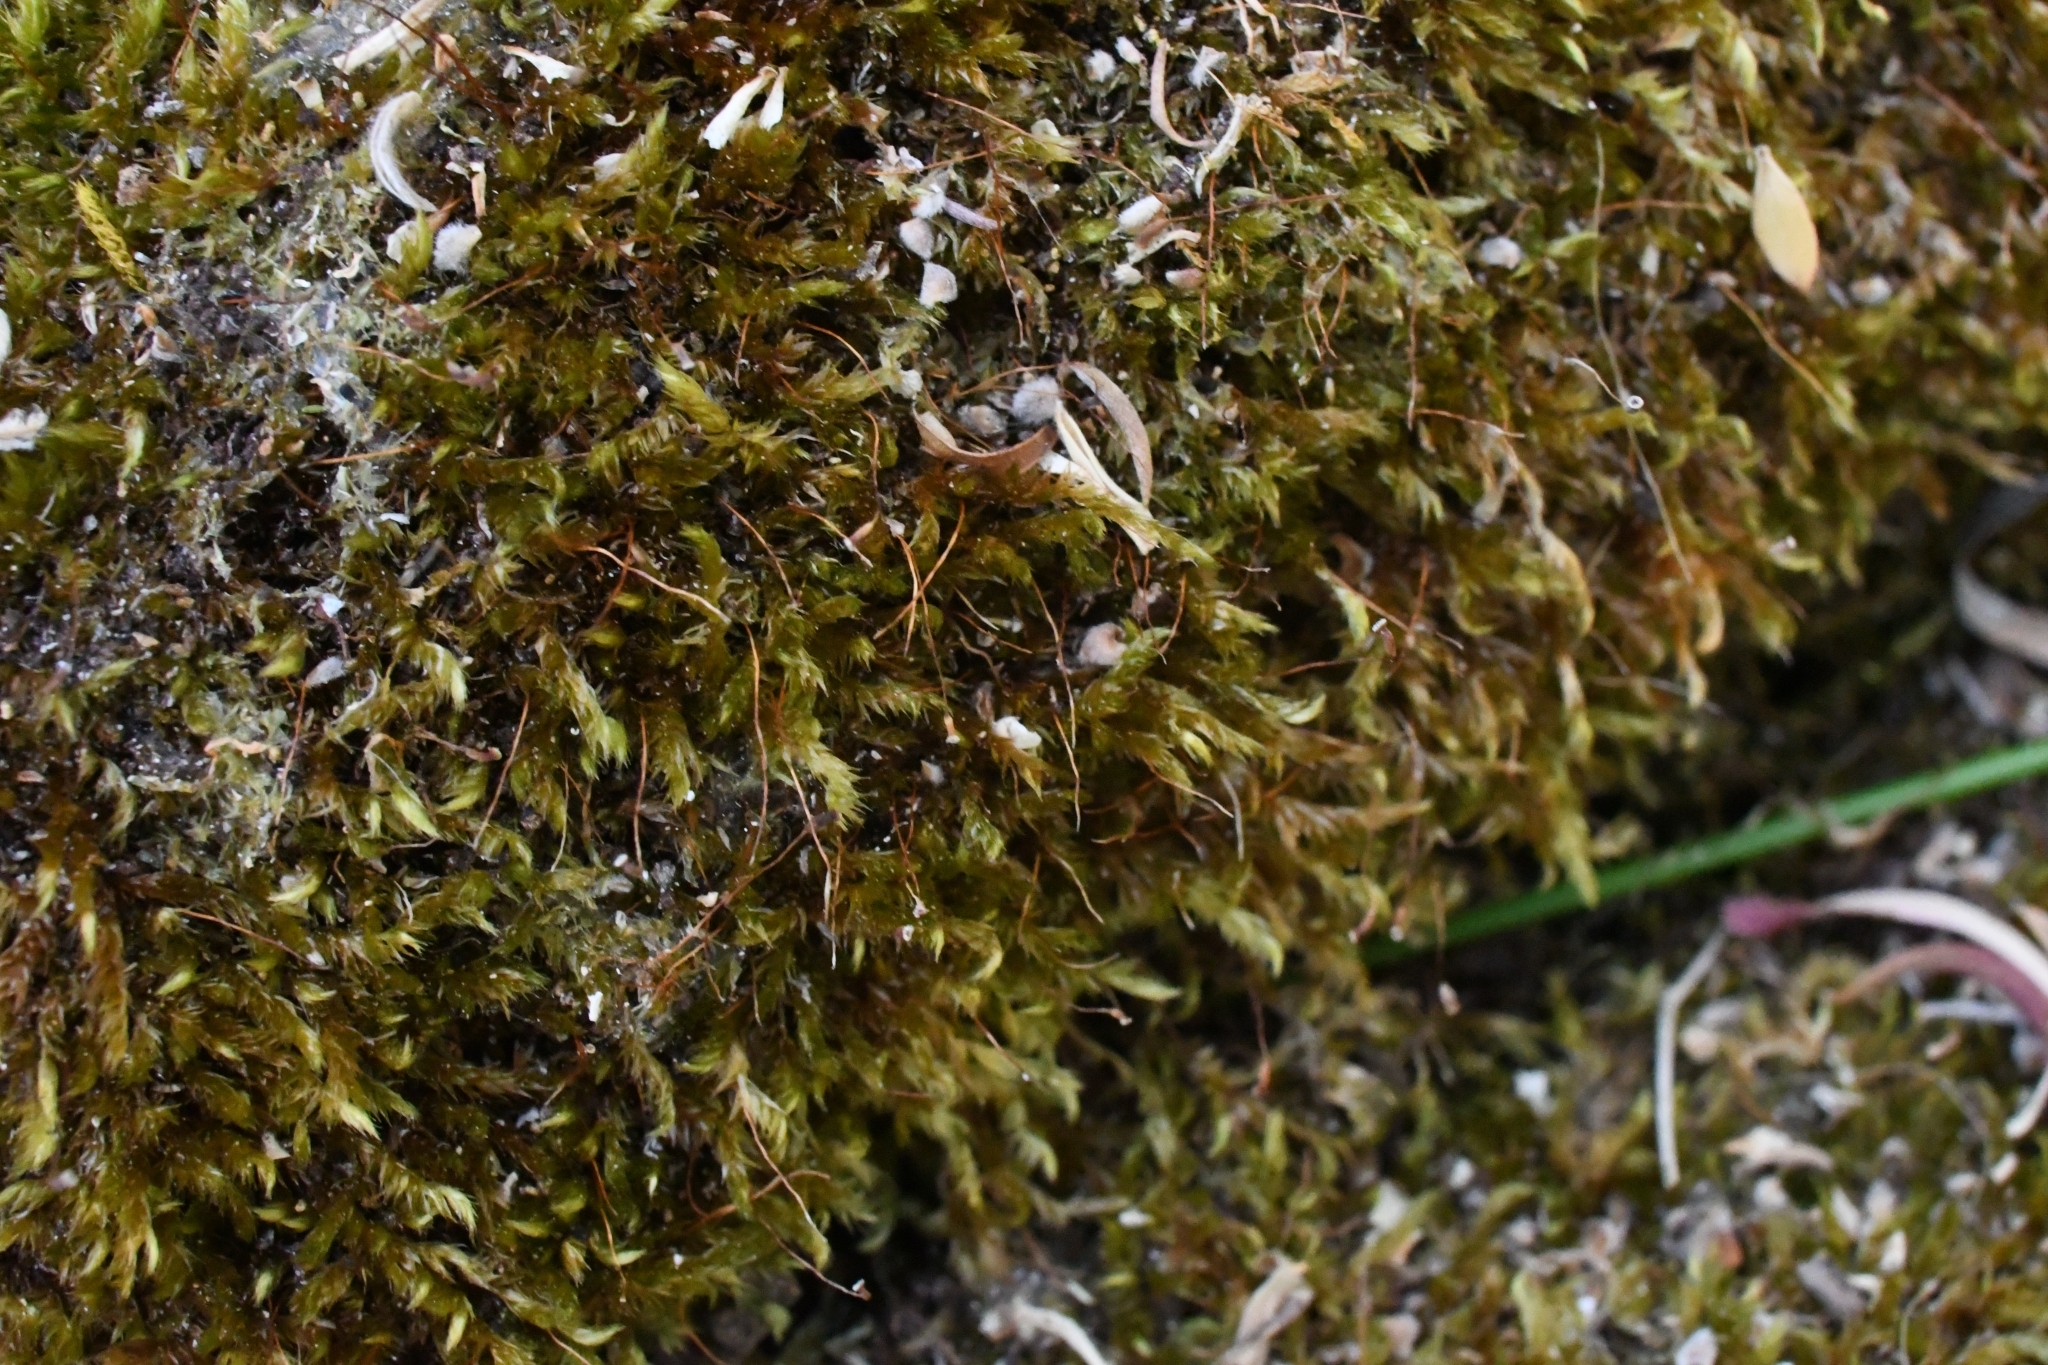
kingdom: Plantae
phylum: Bryophyta
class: Bryopsida
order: Hypnales
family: Sematophyllaceae
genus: Sematophyllum
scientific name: Sematophyllum homomallum
